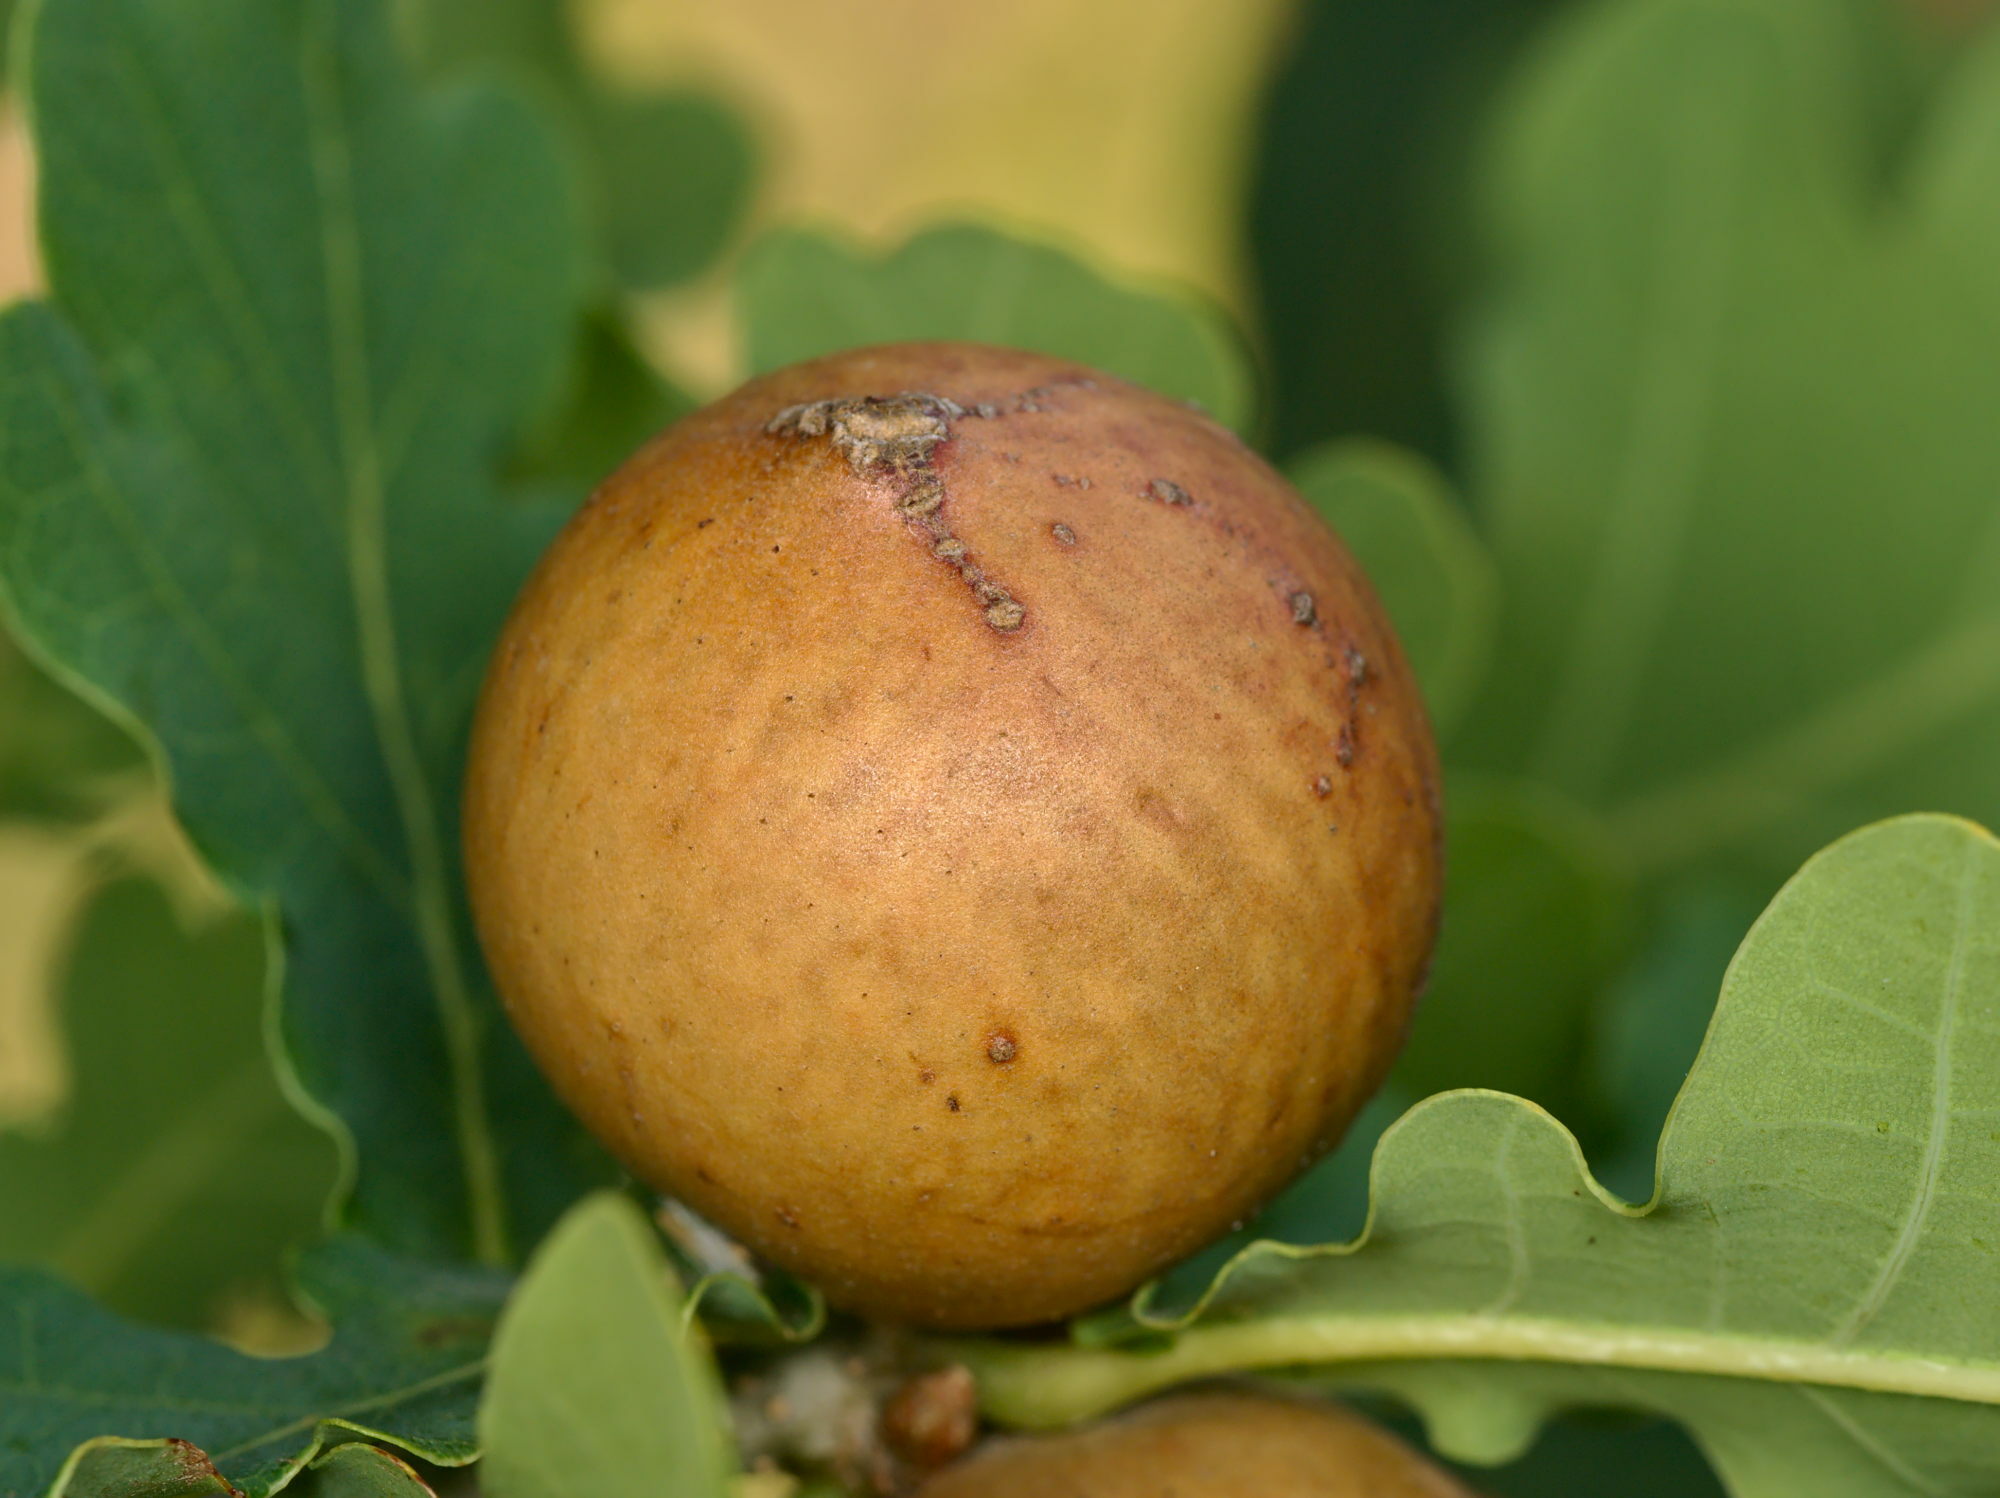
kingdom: Animalia
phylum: Arthropoda
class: Insecta
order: Hymenoptera
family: Cynipidae
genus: Andricus
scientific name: Andricus kollari
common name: Marble gall
